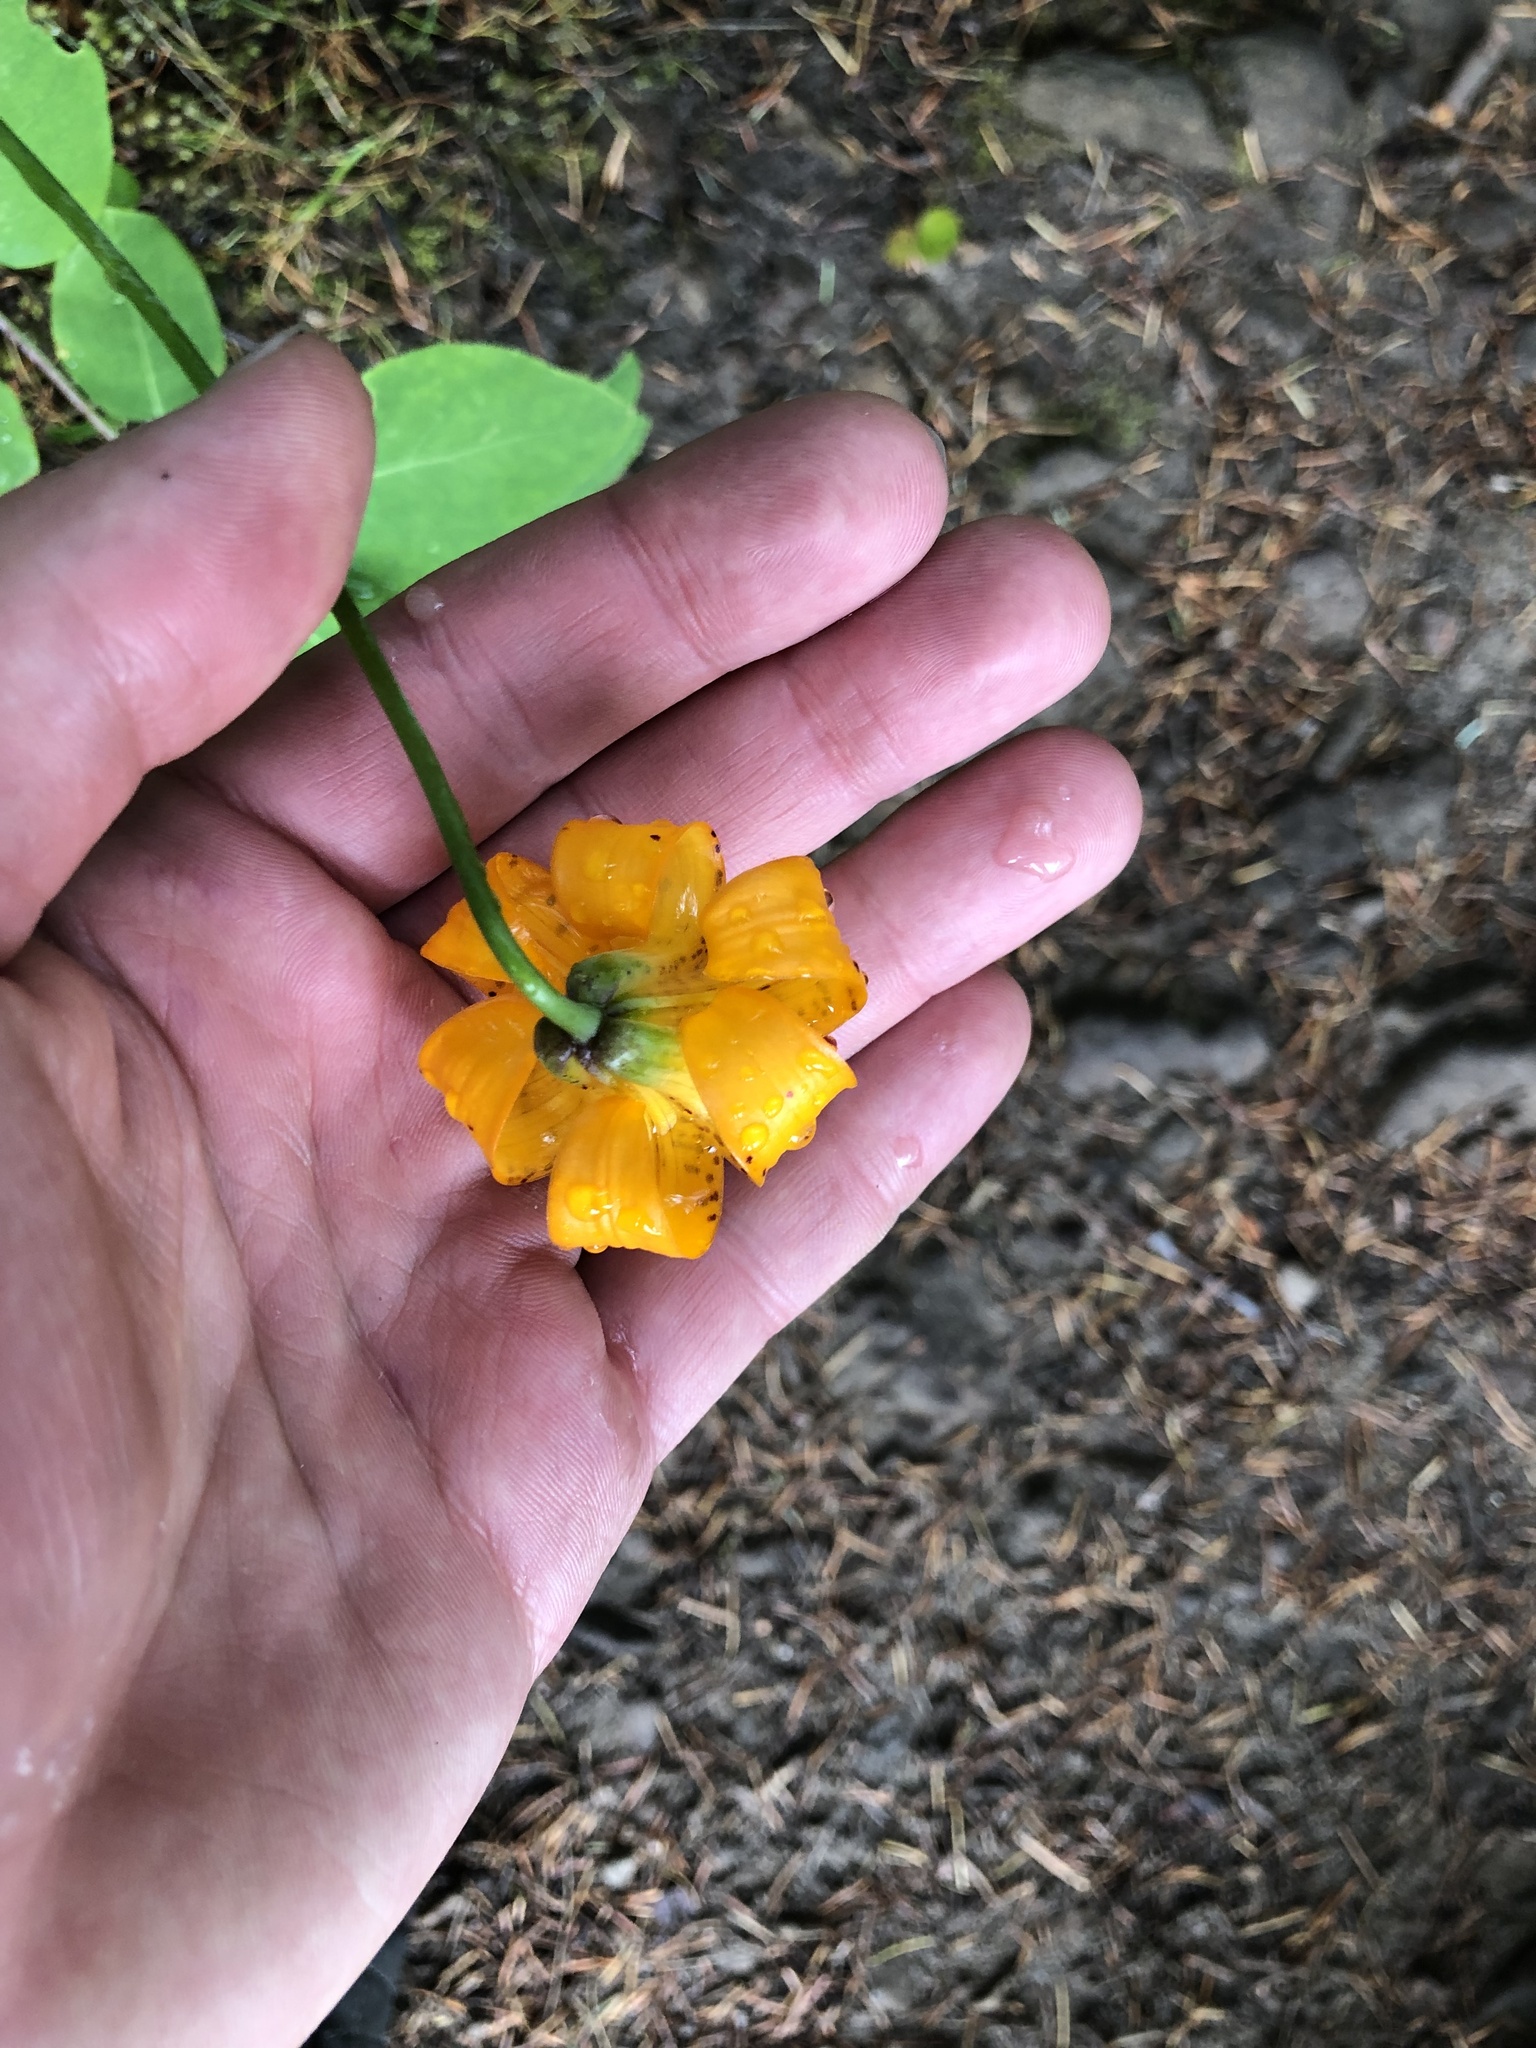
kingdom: Plantae
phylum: Tracheophyta
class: Liliopsida
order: Liliales
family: Liliaceae
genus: Lilium
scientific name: Lilium columbianum
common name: Columbia lily
